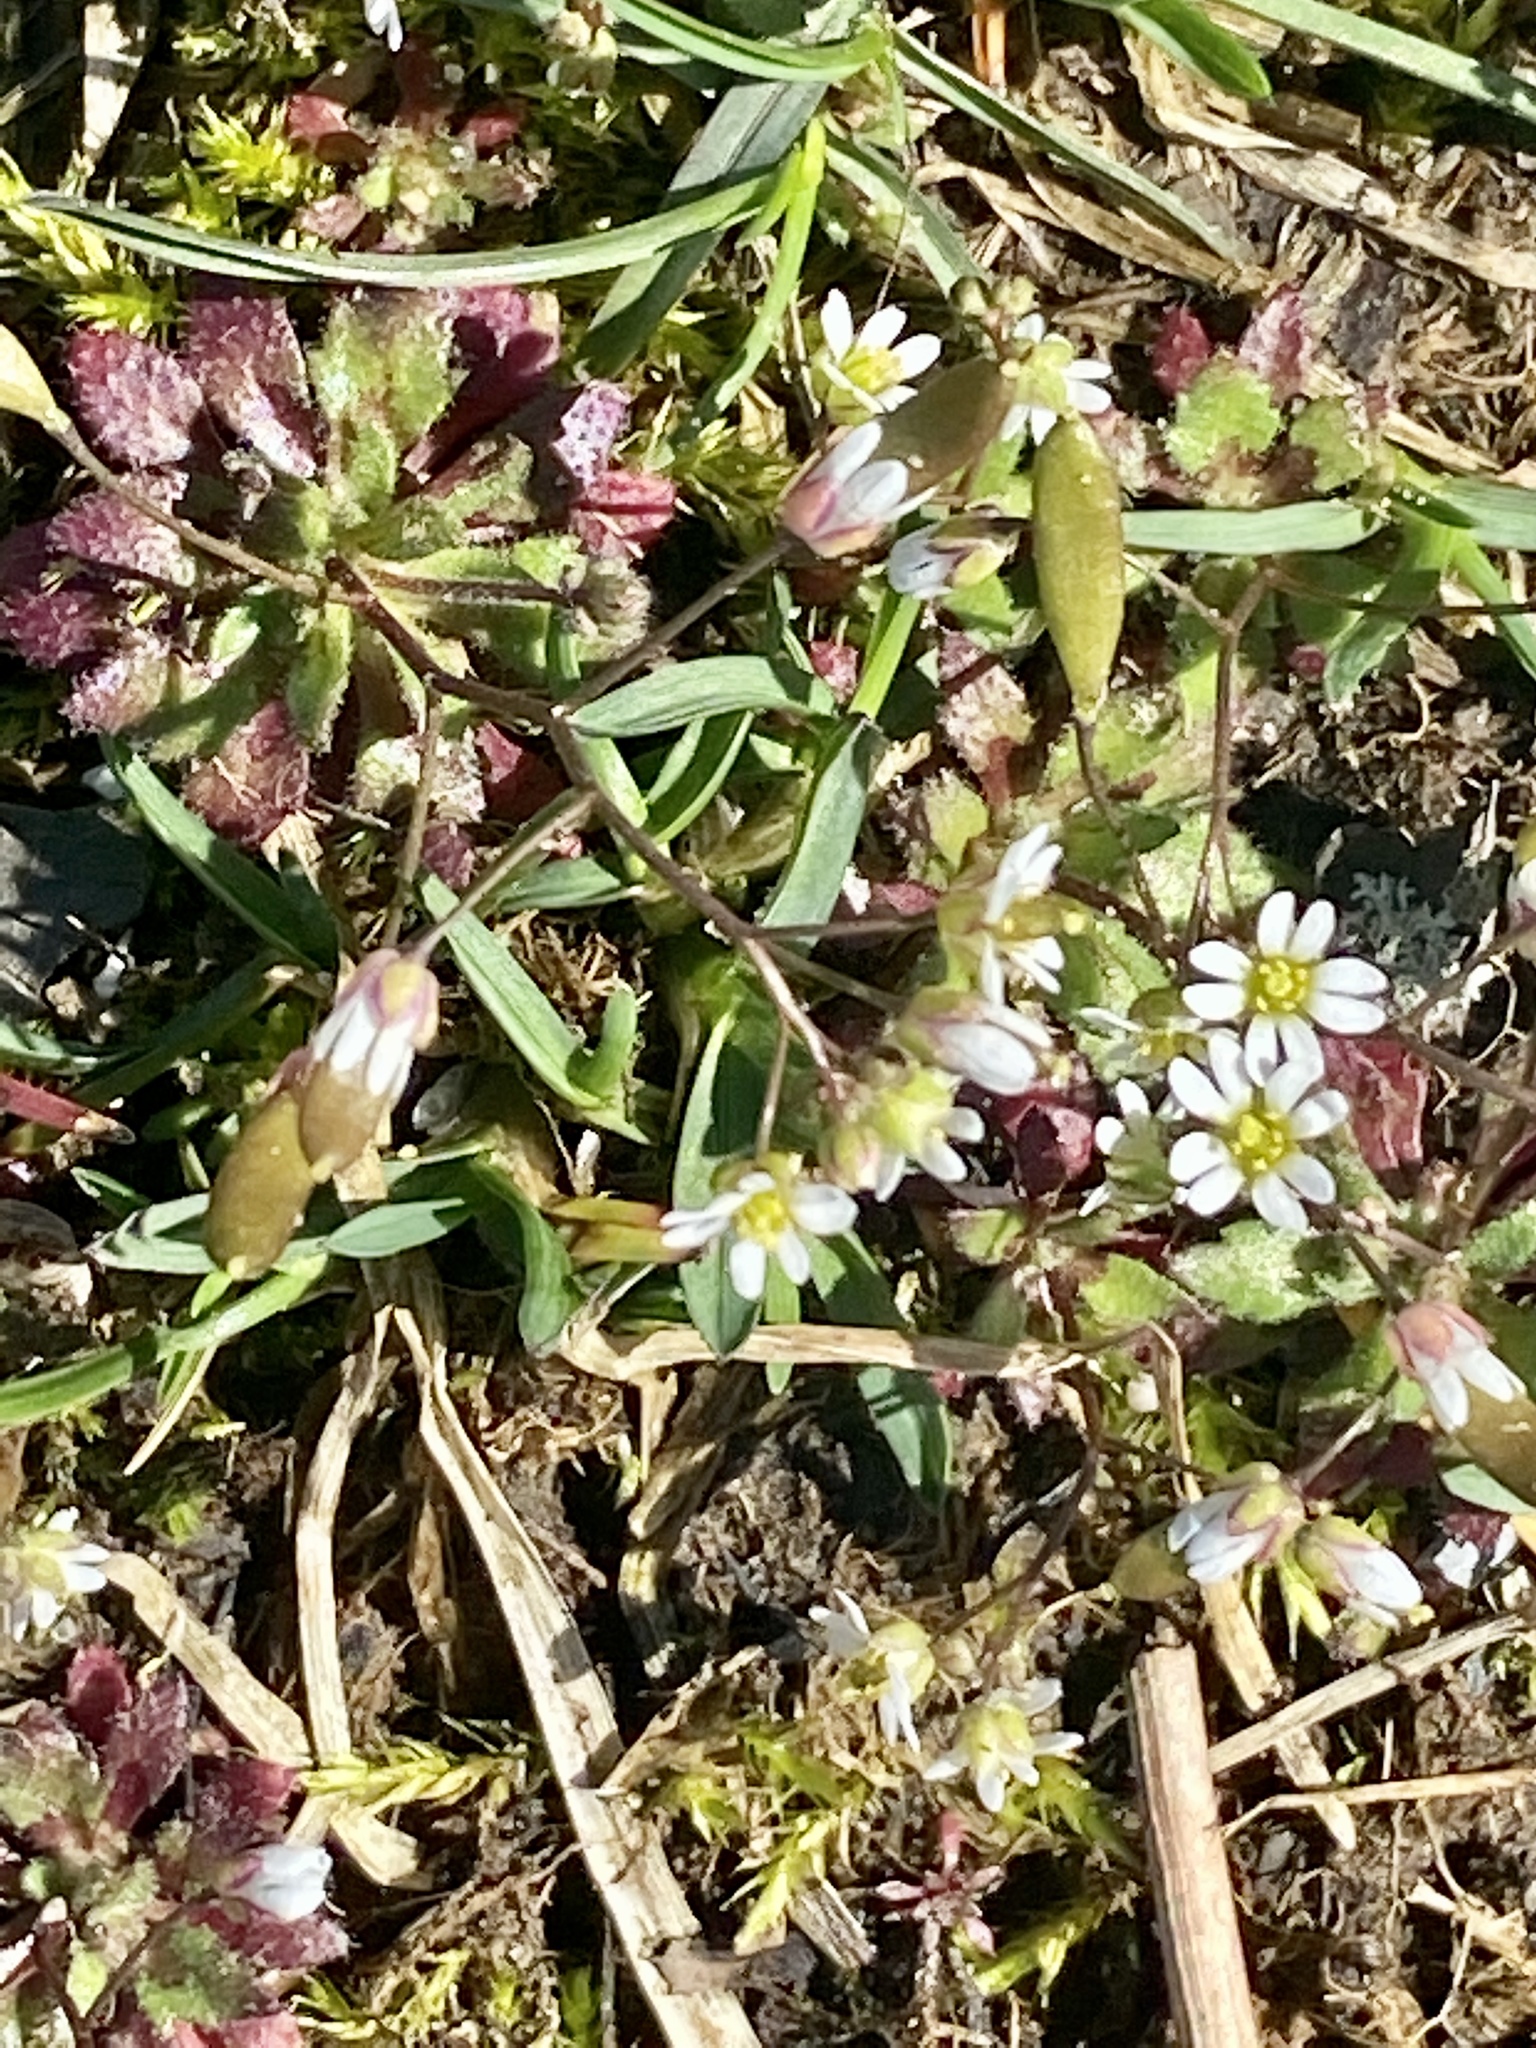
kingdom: Plantae
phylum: Tracheophyta
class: Magnoliopsida
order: Brassicales
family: Brassicaceae
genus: Draba
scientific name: Draba verna
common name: Spring draba
